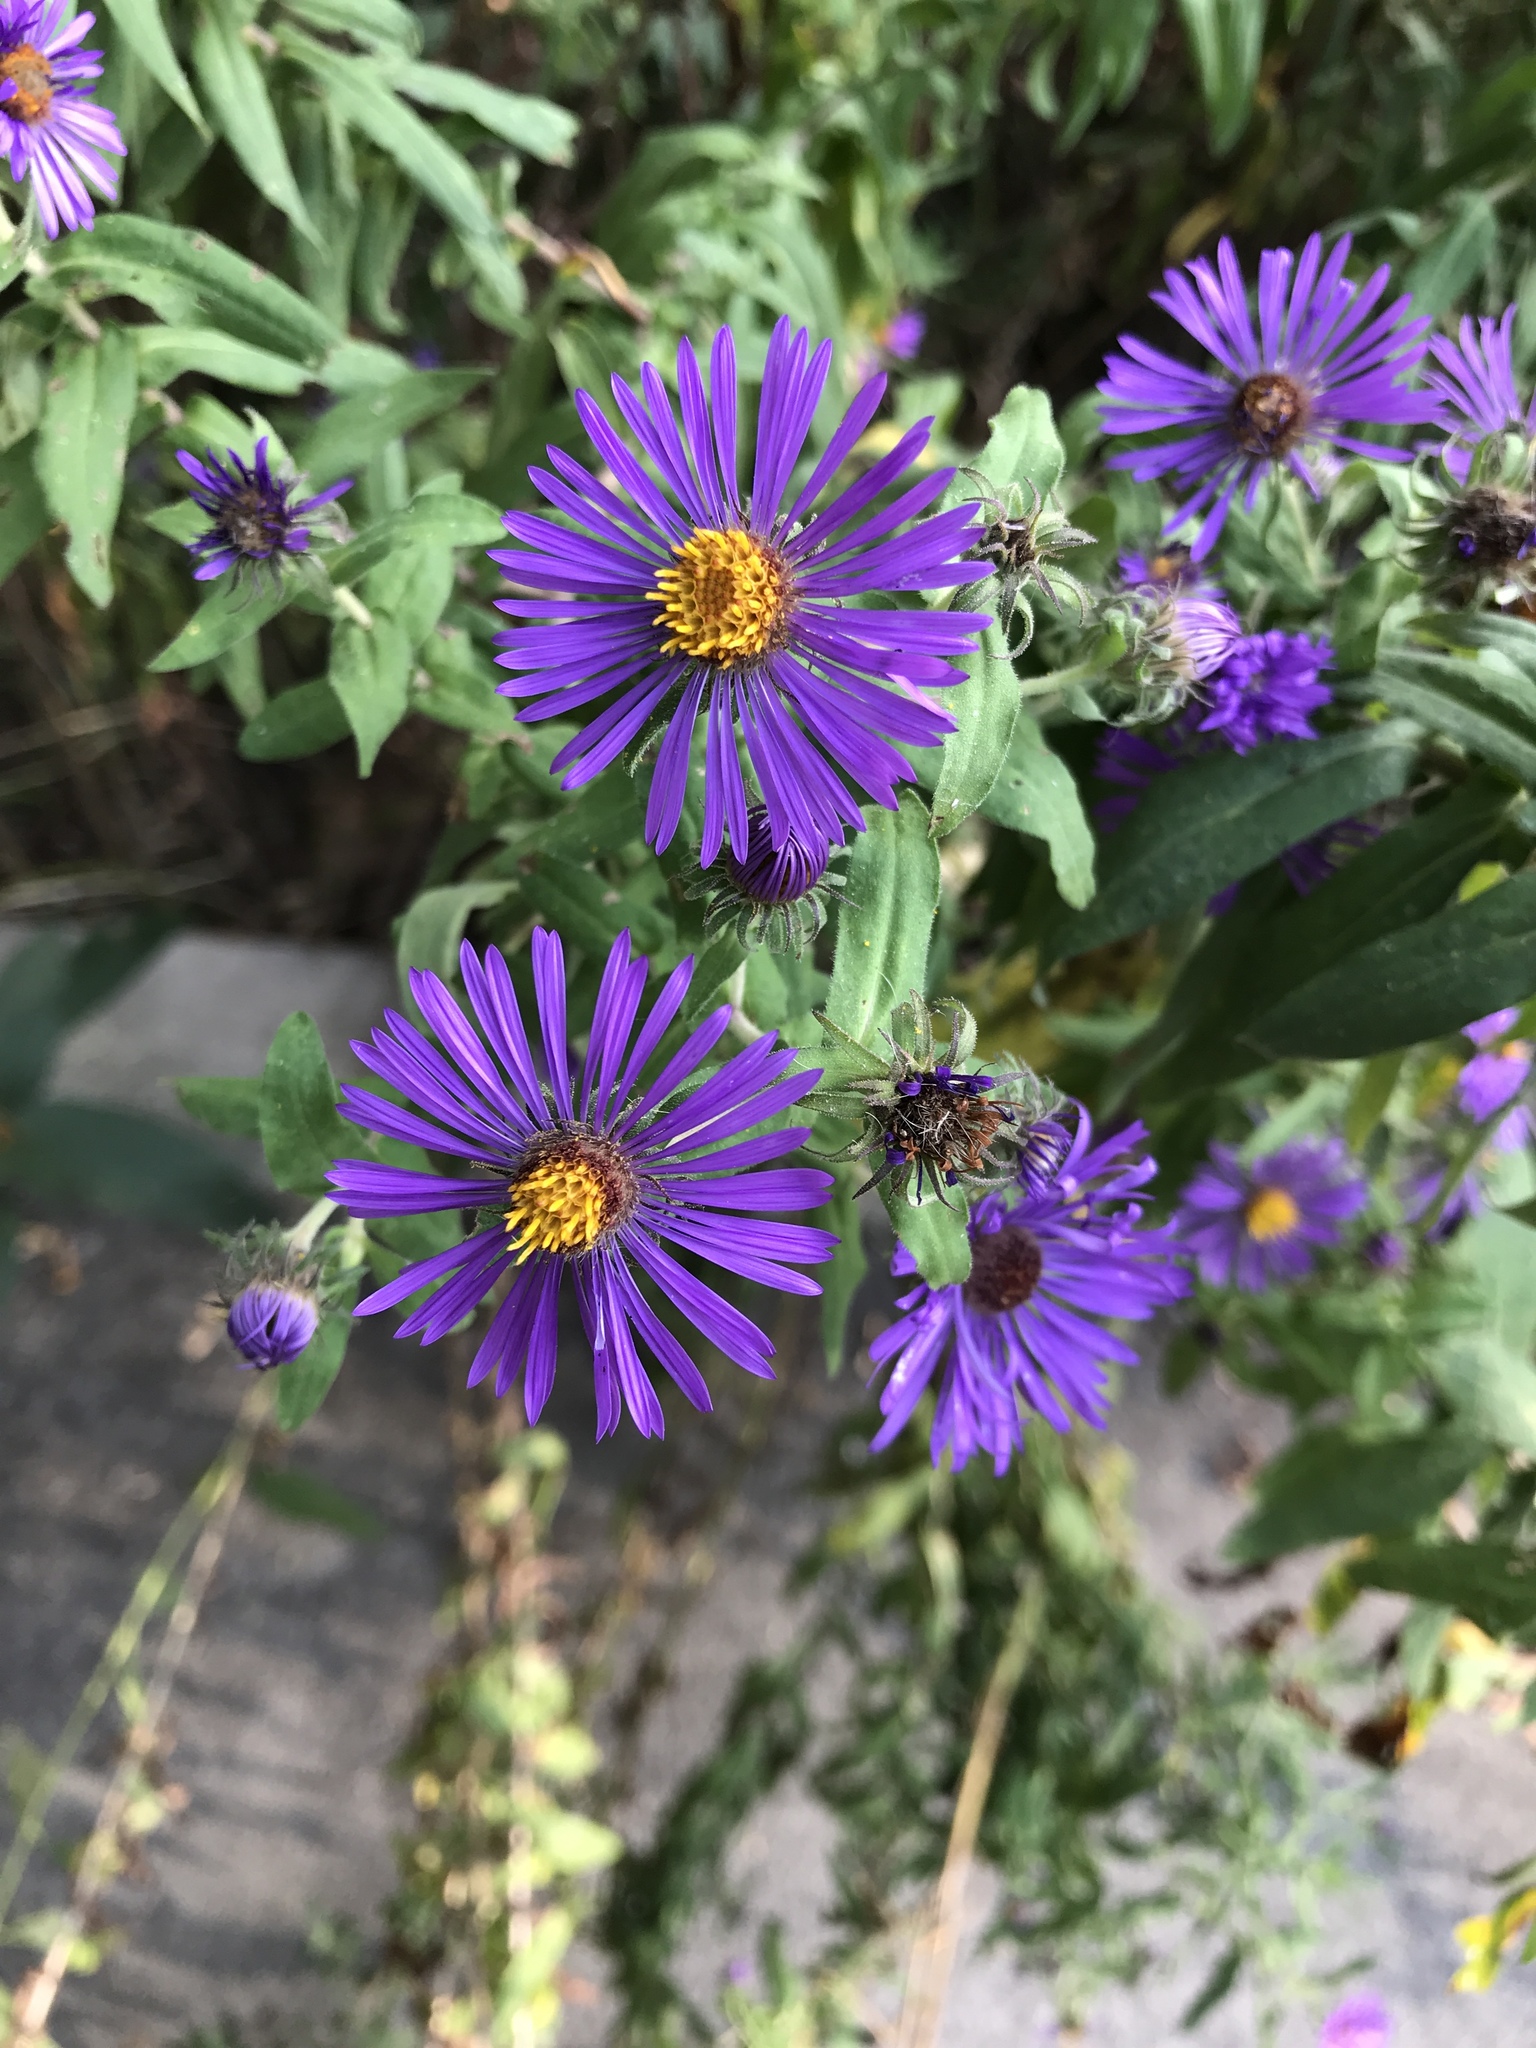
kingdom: Plantae
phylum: Tracheophyta
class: Magnoliopsida
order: Asterales
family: Asteraceae
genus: Symphyotrichum
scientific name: Symphyotrichum novae-angliae
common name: Michaelmas daisy
